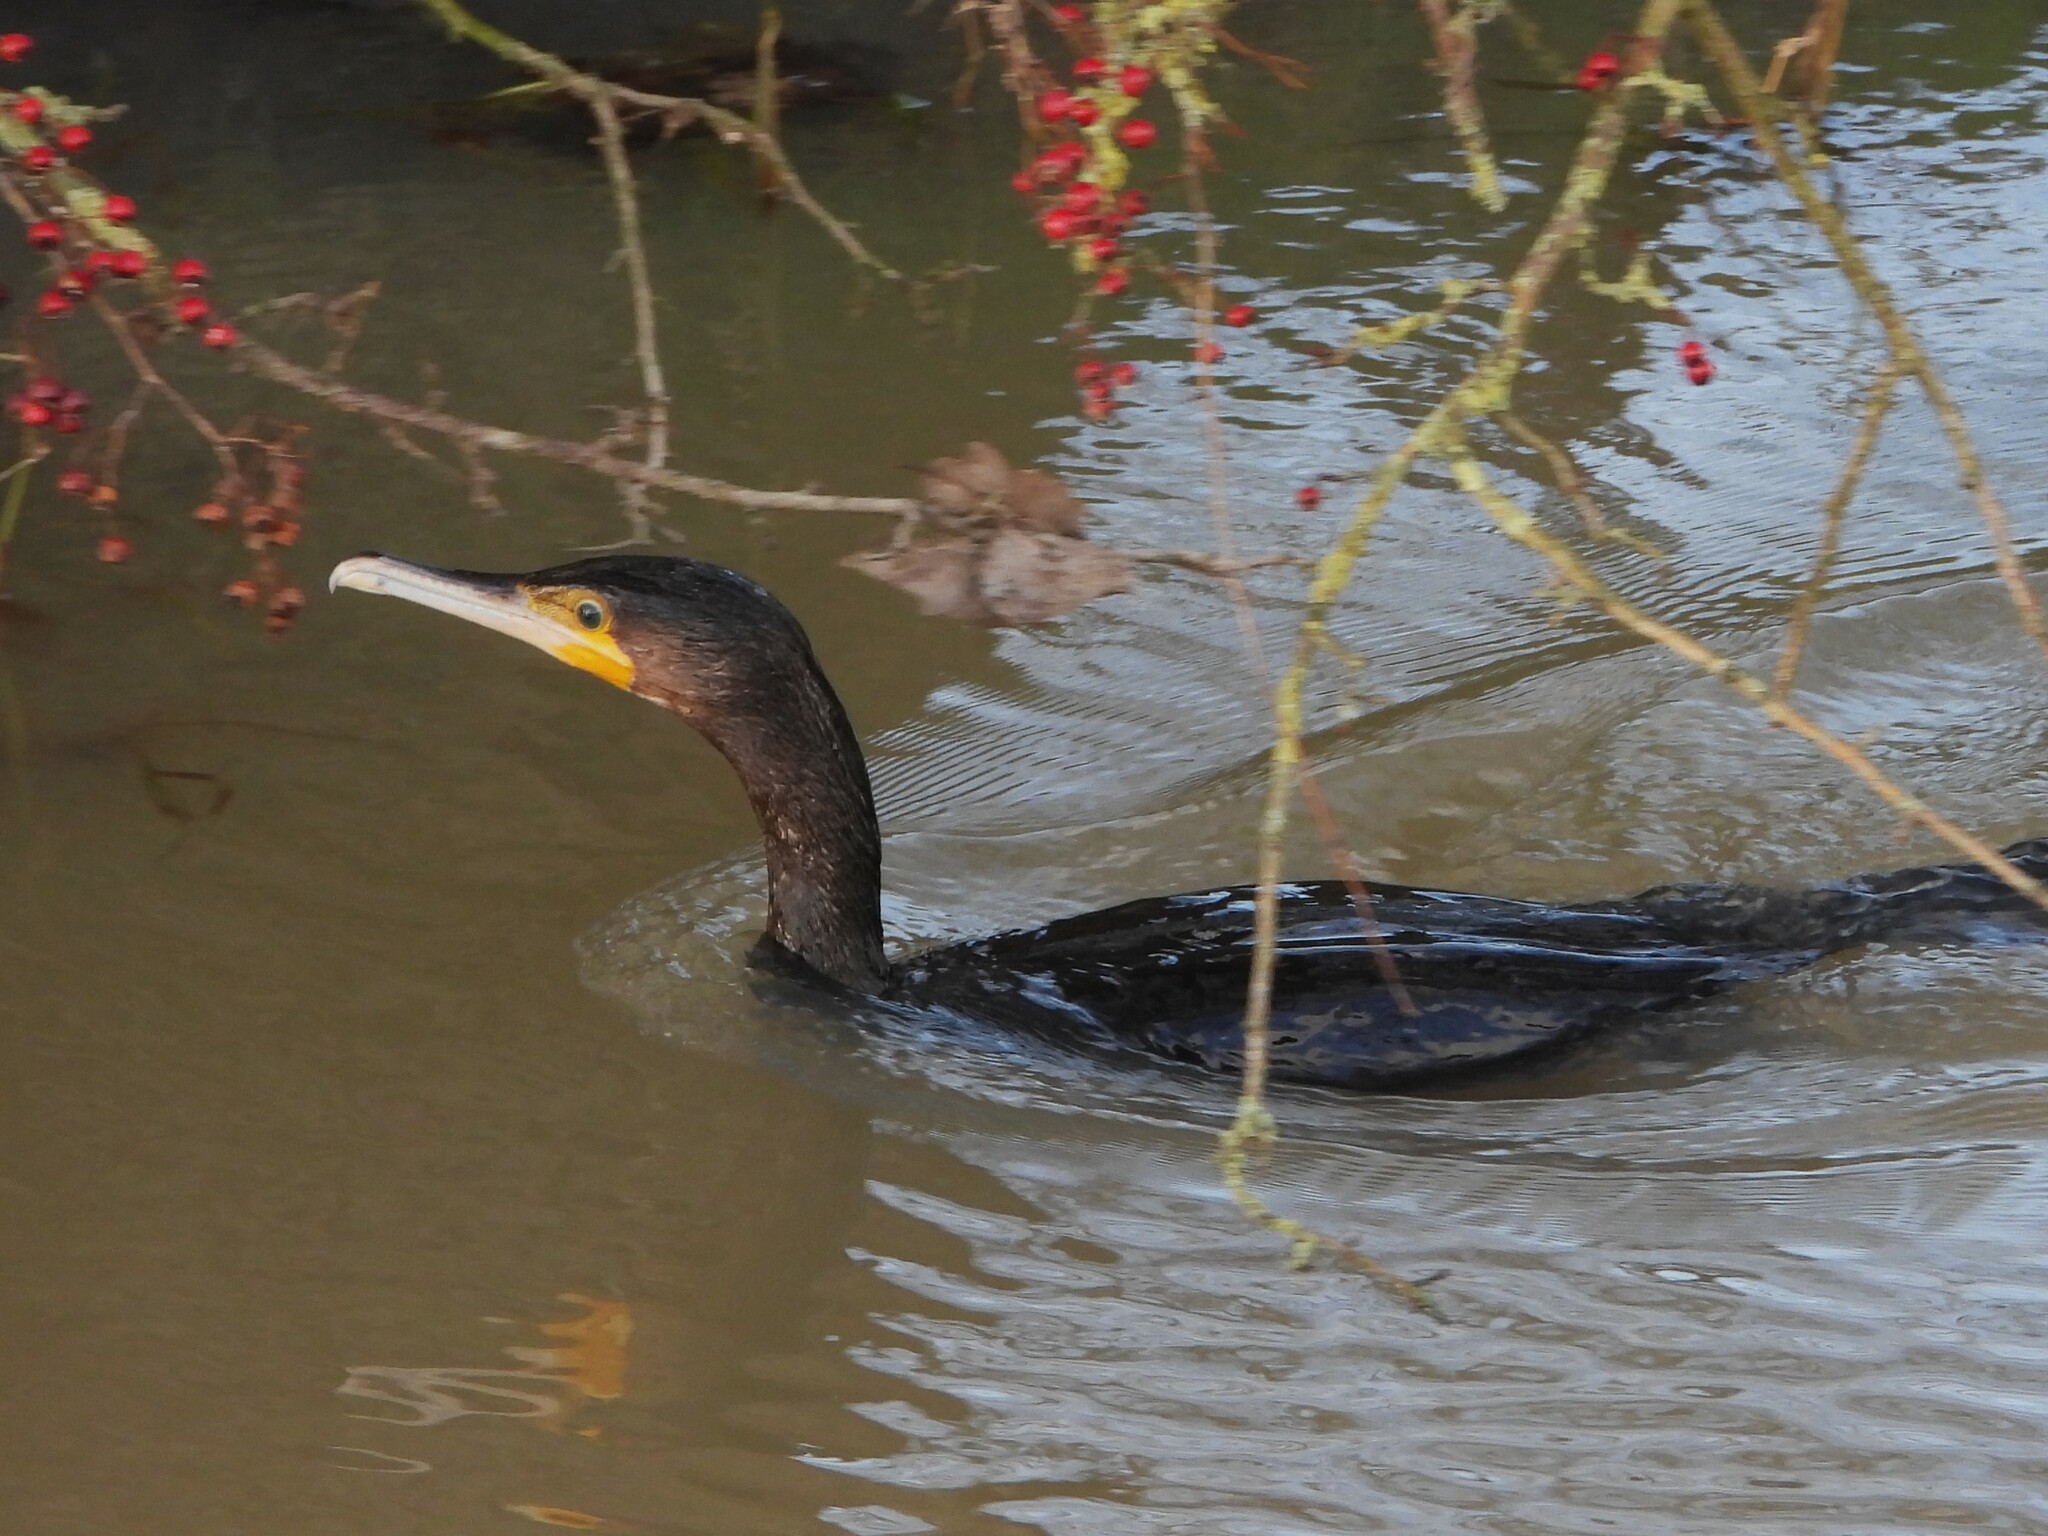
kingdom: Animalia
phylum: Chordata
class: Aves
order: Suliformes
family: Phalacrocoracidae
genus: Phalacrocorax
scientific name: Phalacrocorax carbo
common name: Great cormorant
